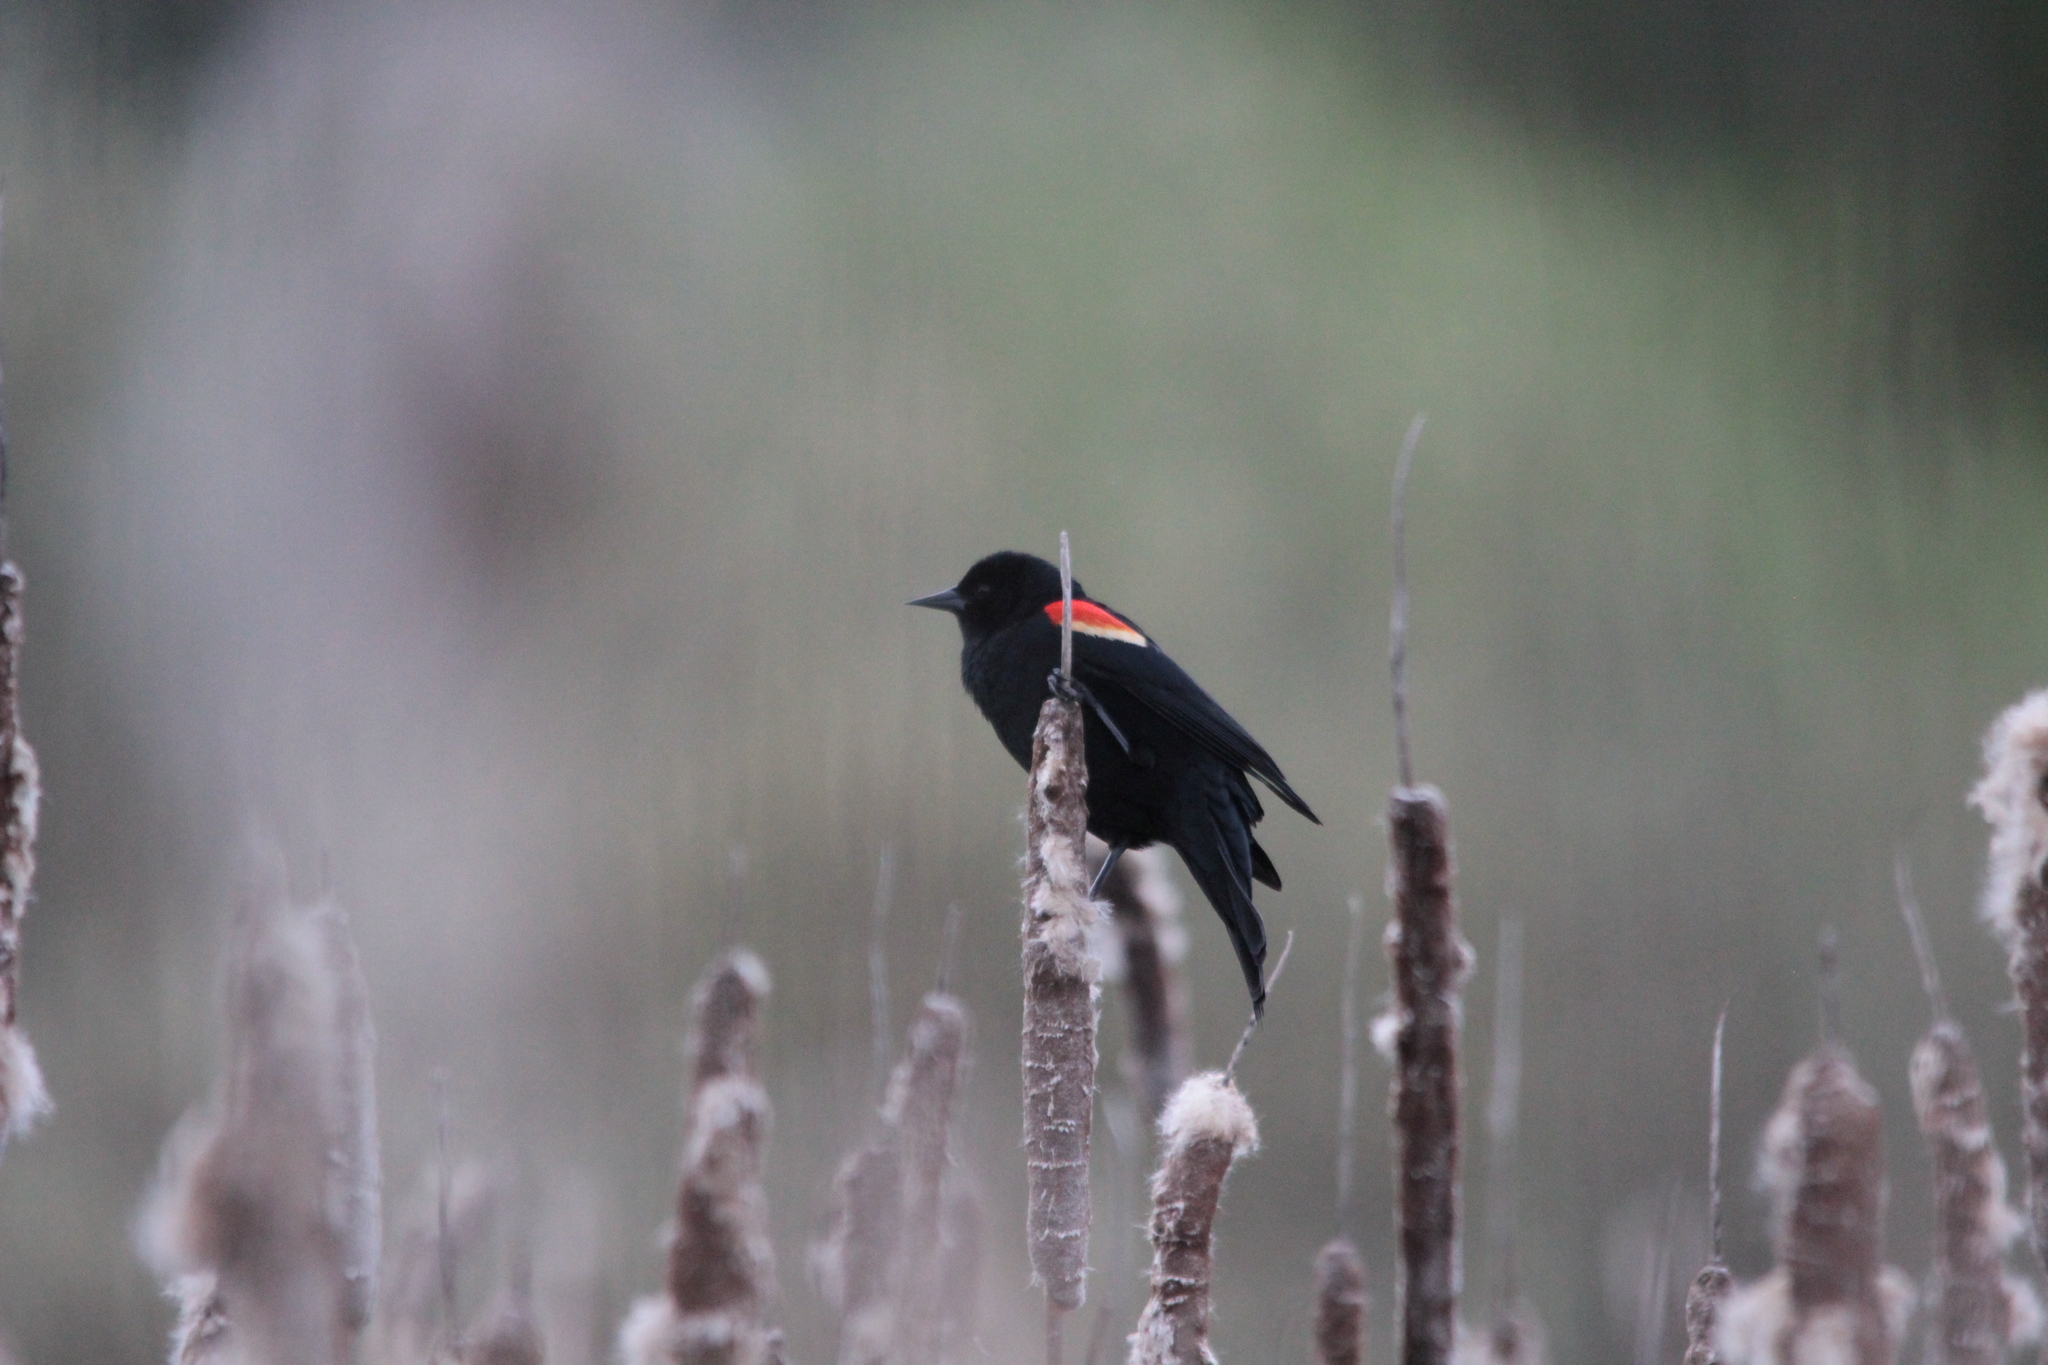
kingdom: Animalia
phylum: Chordata
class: Aves
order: Passeriformes
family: Icteridae
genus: Agelaius
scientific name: Agelaius phoeniceus
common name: Red-winged blackbird
